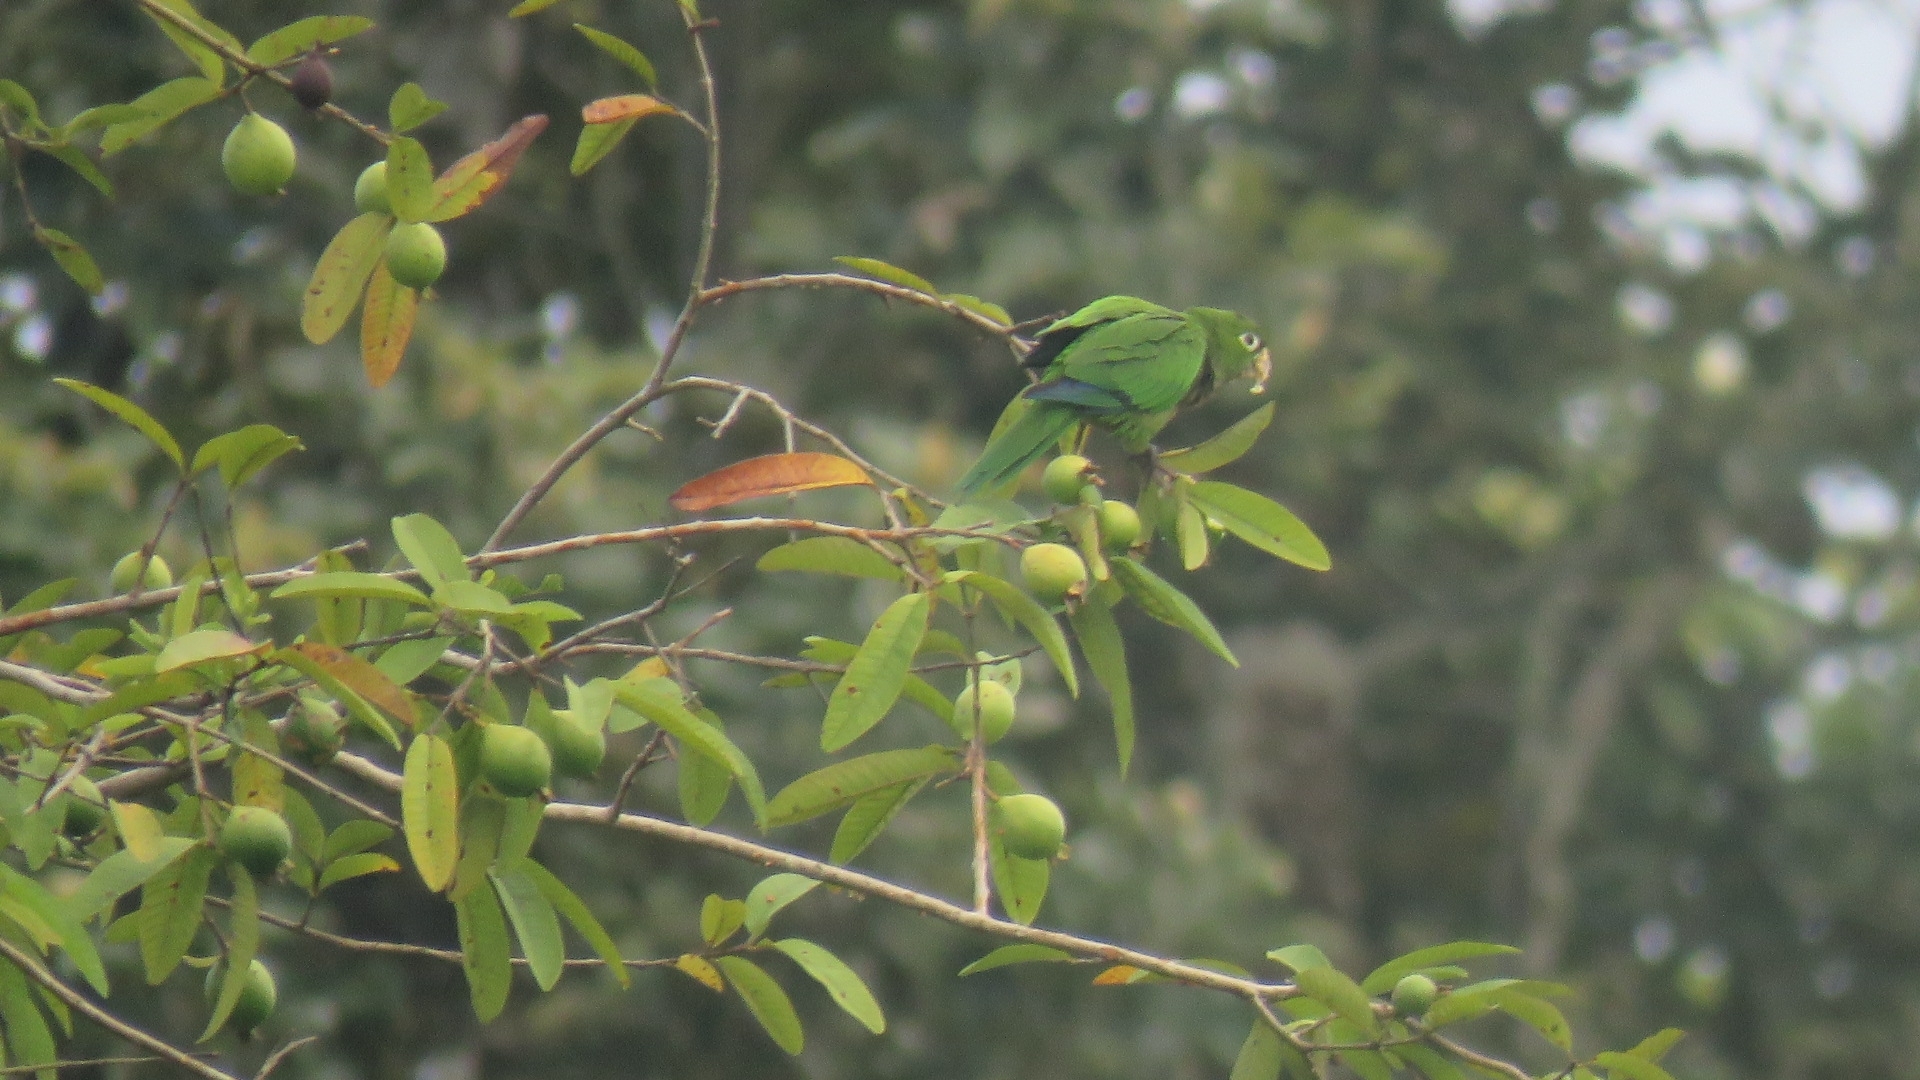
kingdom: Animalia
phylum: Chordata
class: Aves
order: Psittaciformes
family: Psittacidae
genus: Aratinga
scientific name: Aratinga nana
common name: Olive-throated parakeet
